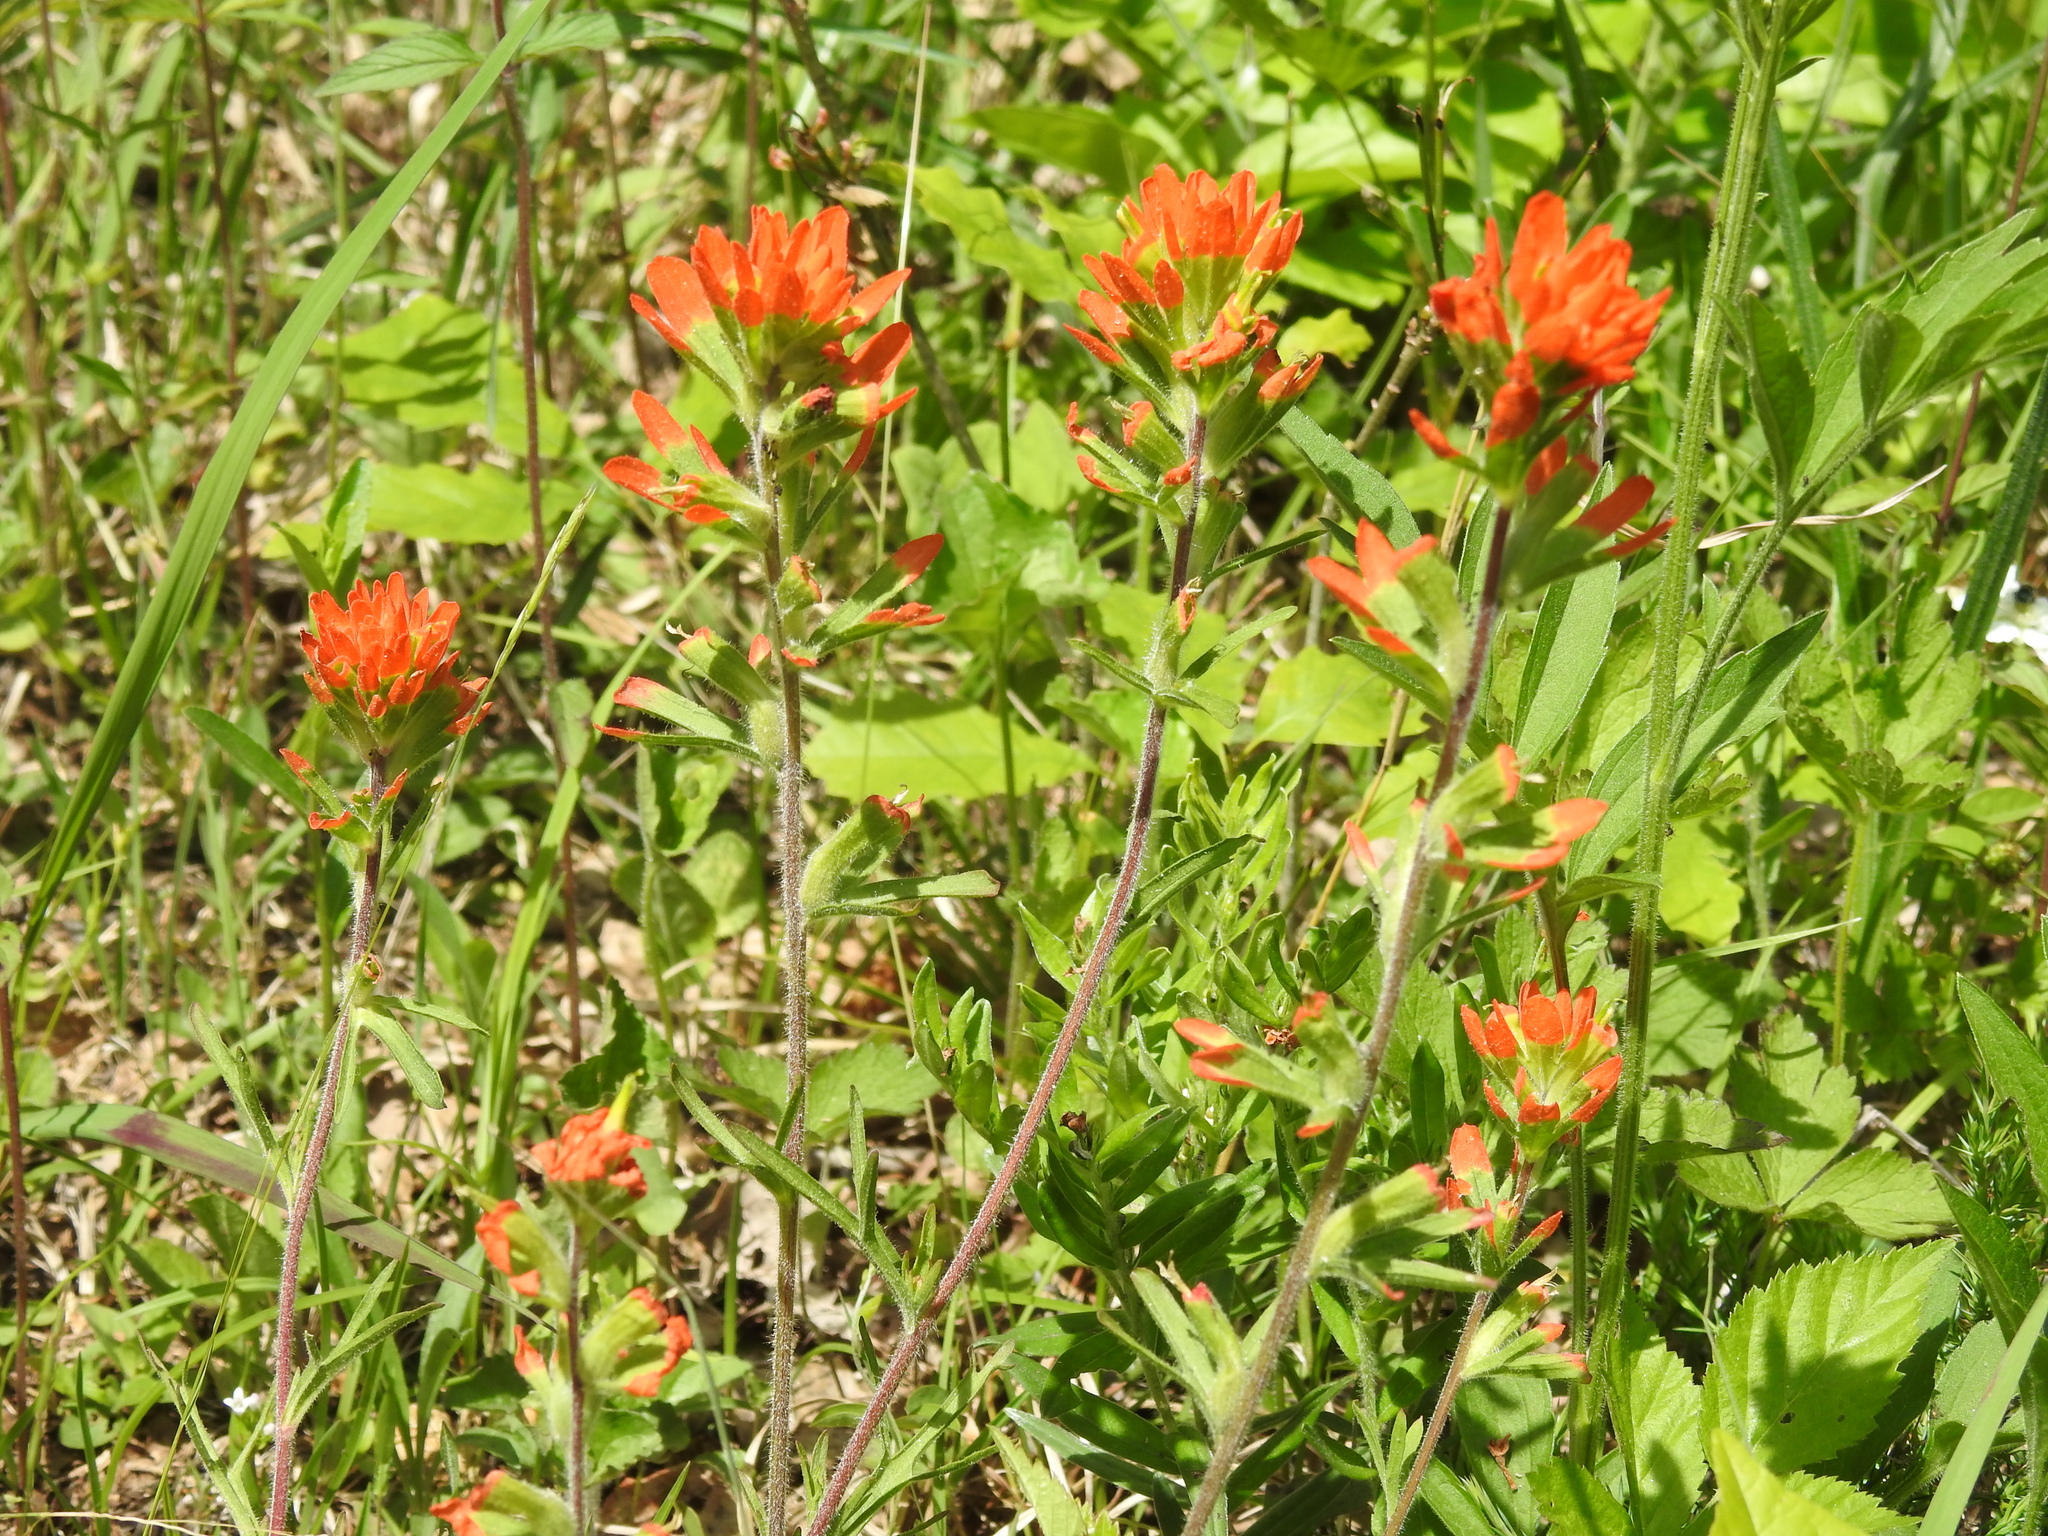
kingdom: Plantae
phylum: Tracheophyta
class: Magnoliopsida
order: Lamiales
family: Orobanchaceae
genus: Castilleja
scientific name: Castilleja coccinea
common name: Scarlet paintbrush
